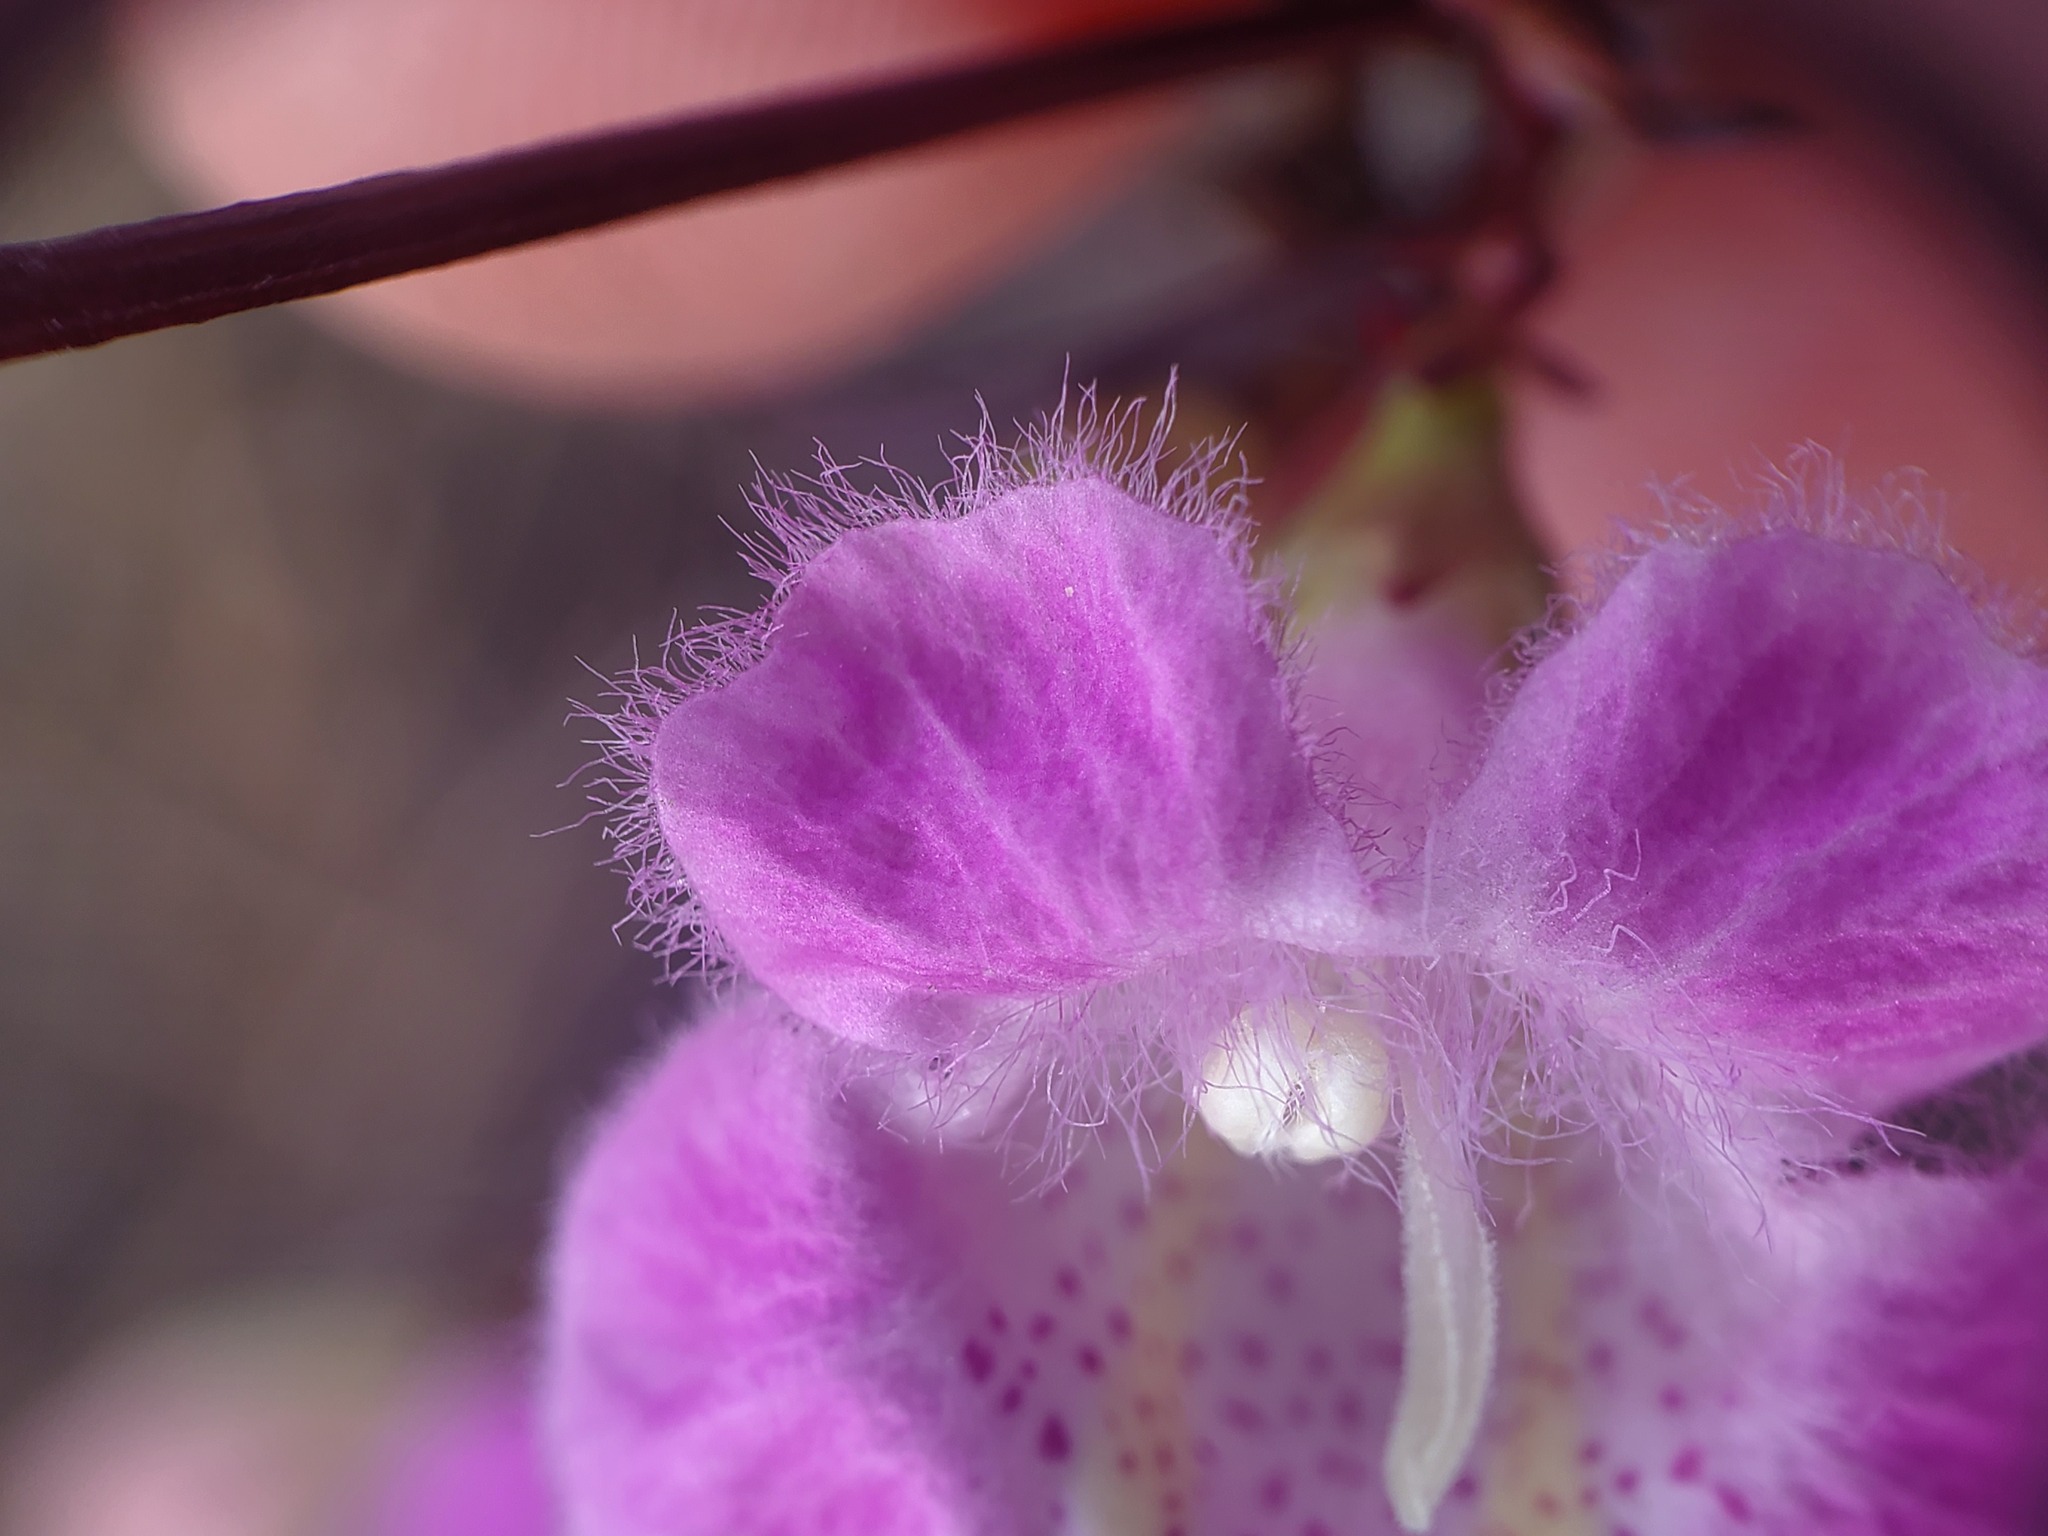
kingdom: Plantae
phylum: Tracheophyta
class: Magnoliopsida
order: Lamiales
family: Orobanchaceae
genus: Agalinis
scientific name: Agalinis
